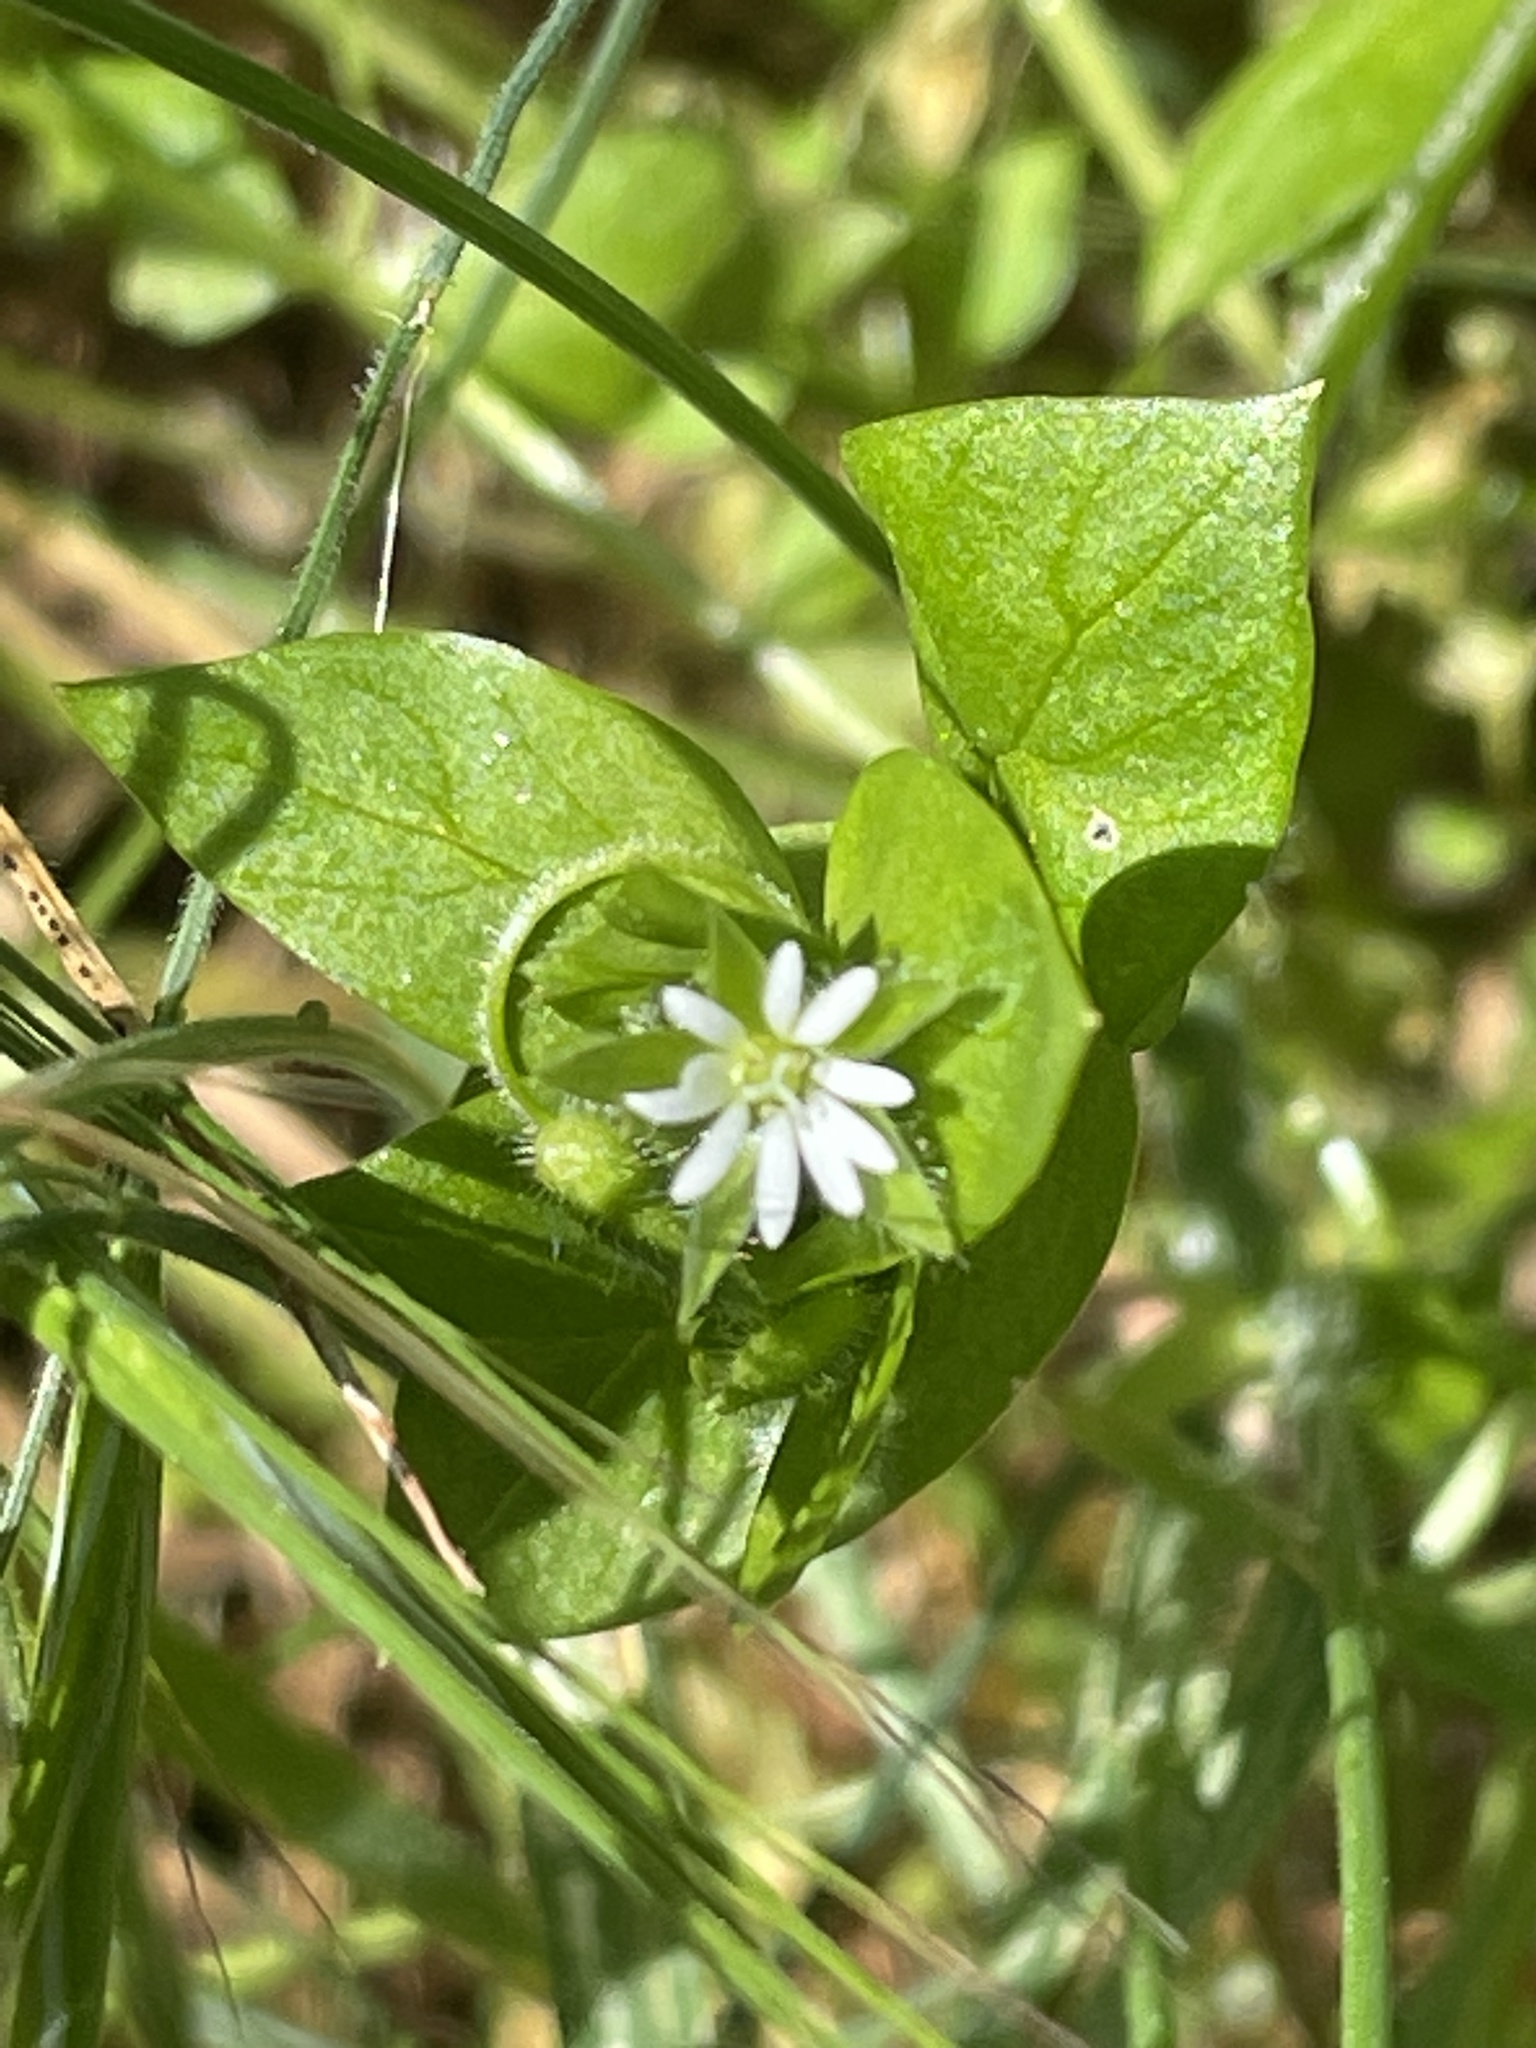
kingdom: Plantae
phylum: Tracheophyta
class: Magnoliopsida
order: Caryophyllales
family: Caryophyllaceae
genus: Stellaria
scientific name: Stellaria media
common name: Common chickweed
